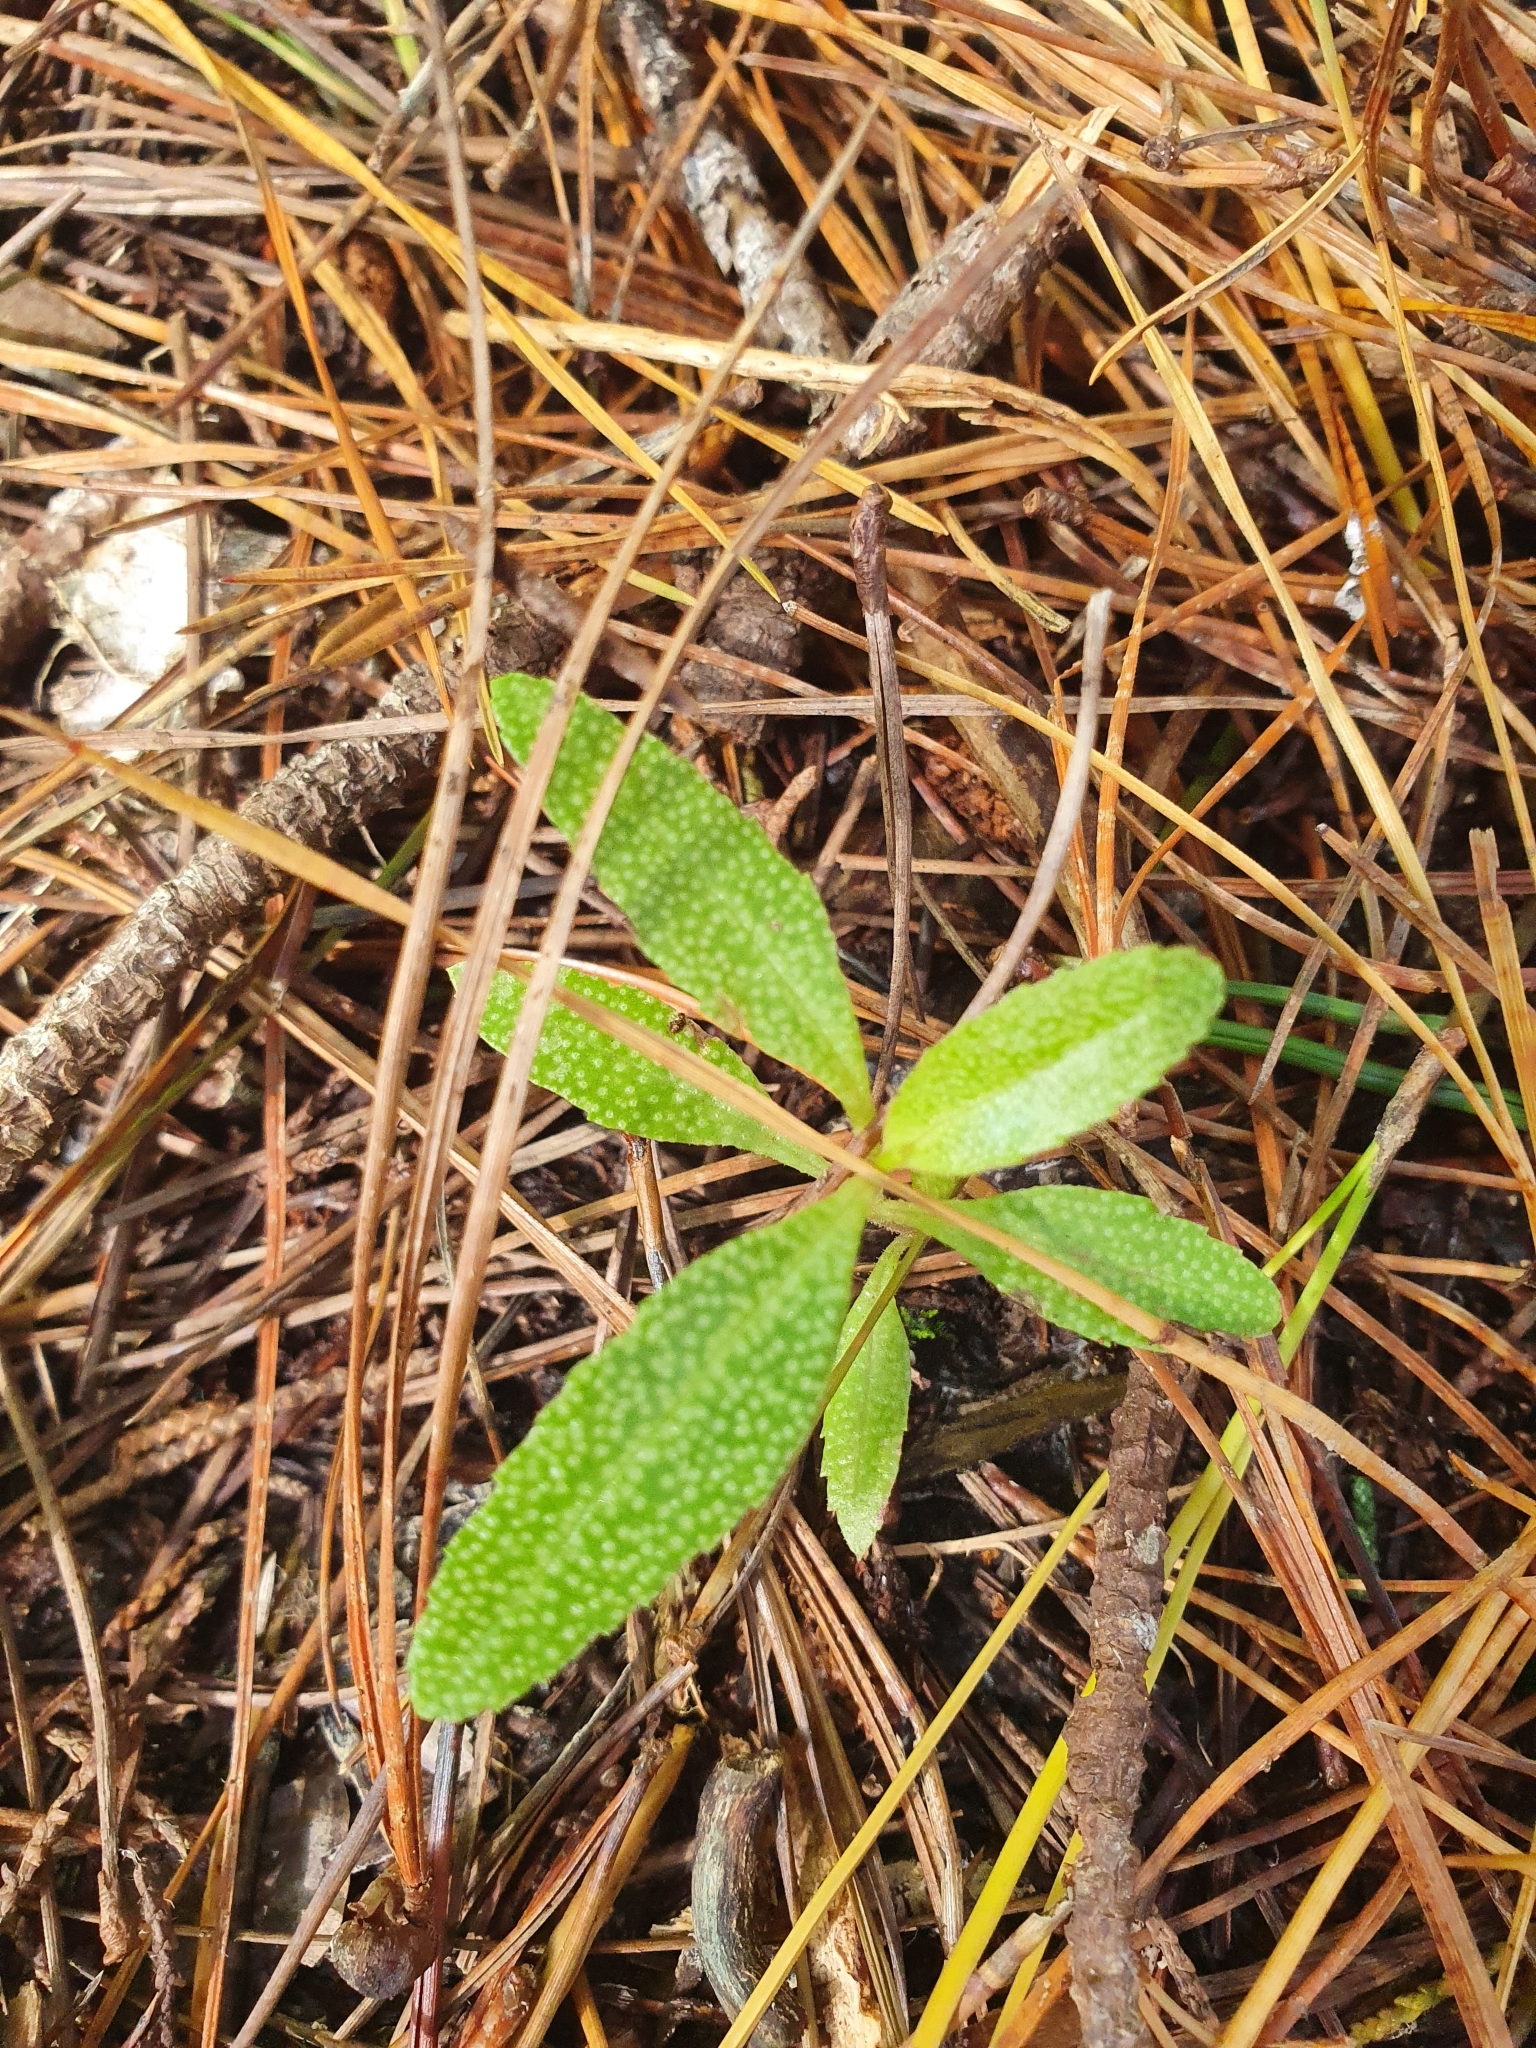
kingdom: Plantae
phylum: Tracheophyta
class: Magnoliopsida
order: Lamiales
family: Scrophulariaceae
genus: Myoporum
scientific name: Myoporum laetum
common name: Ngaio tree
